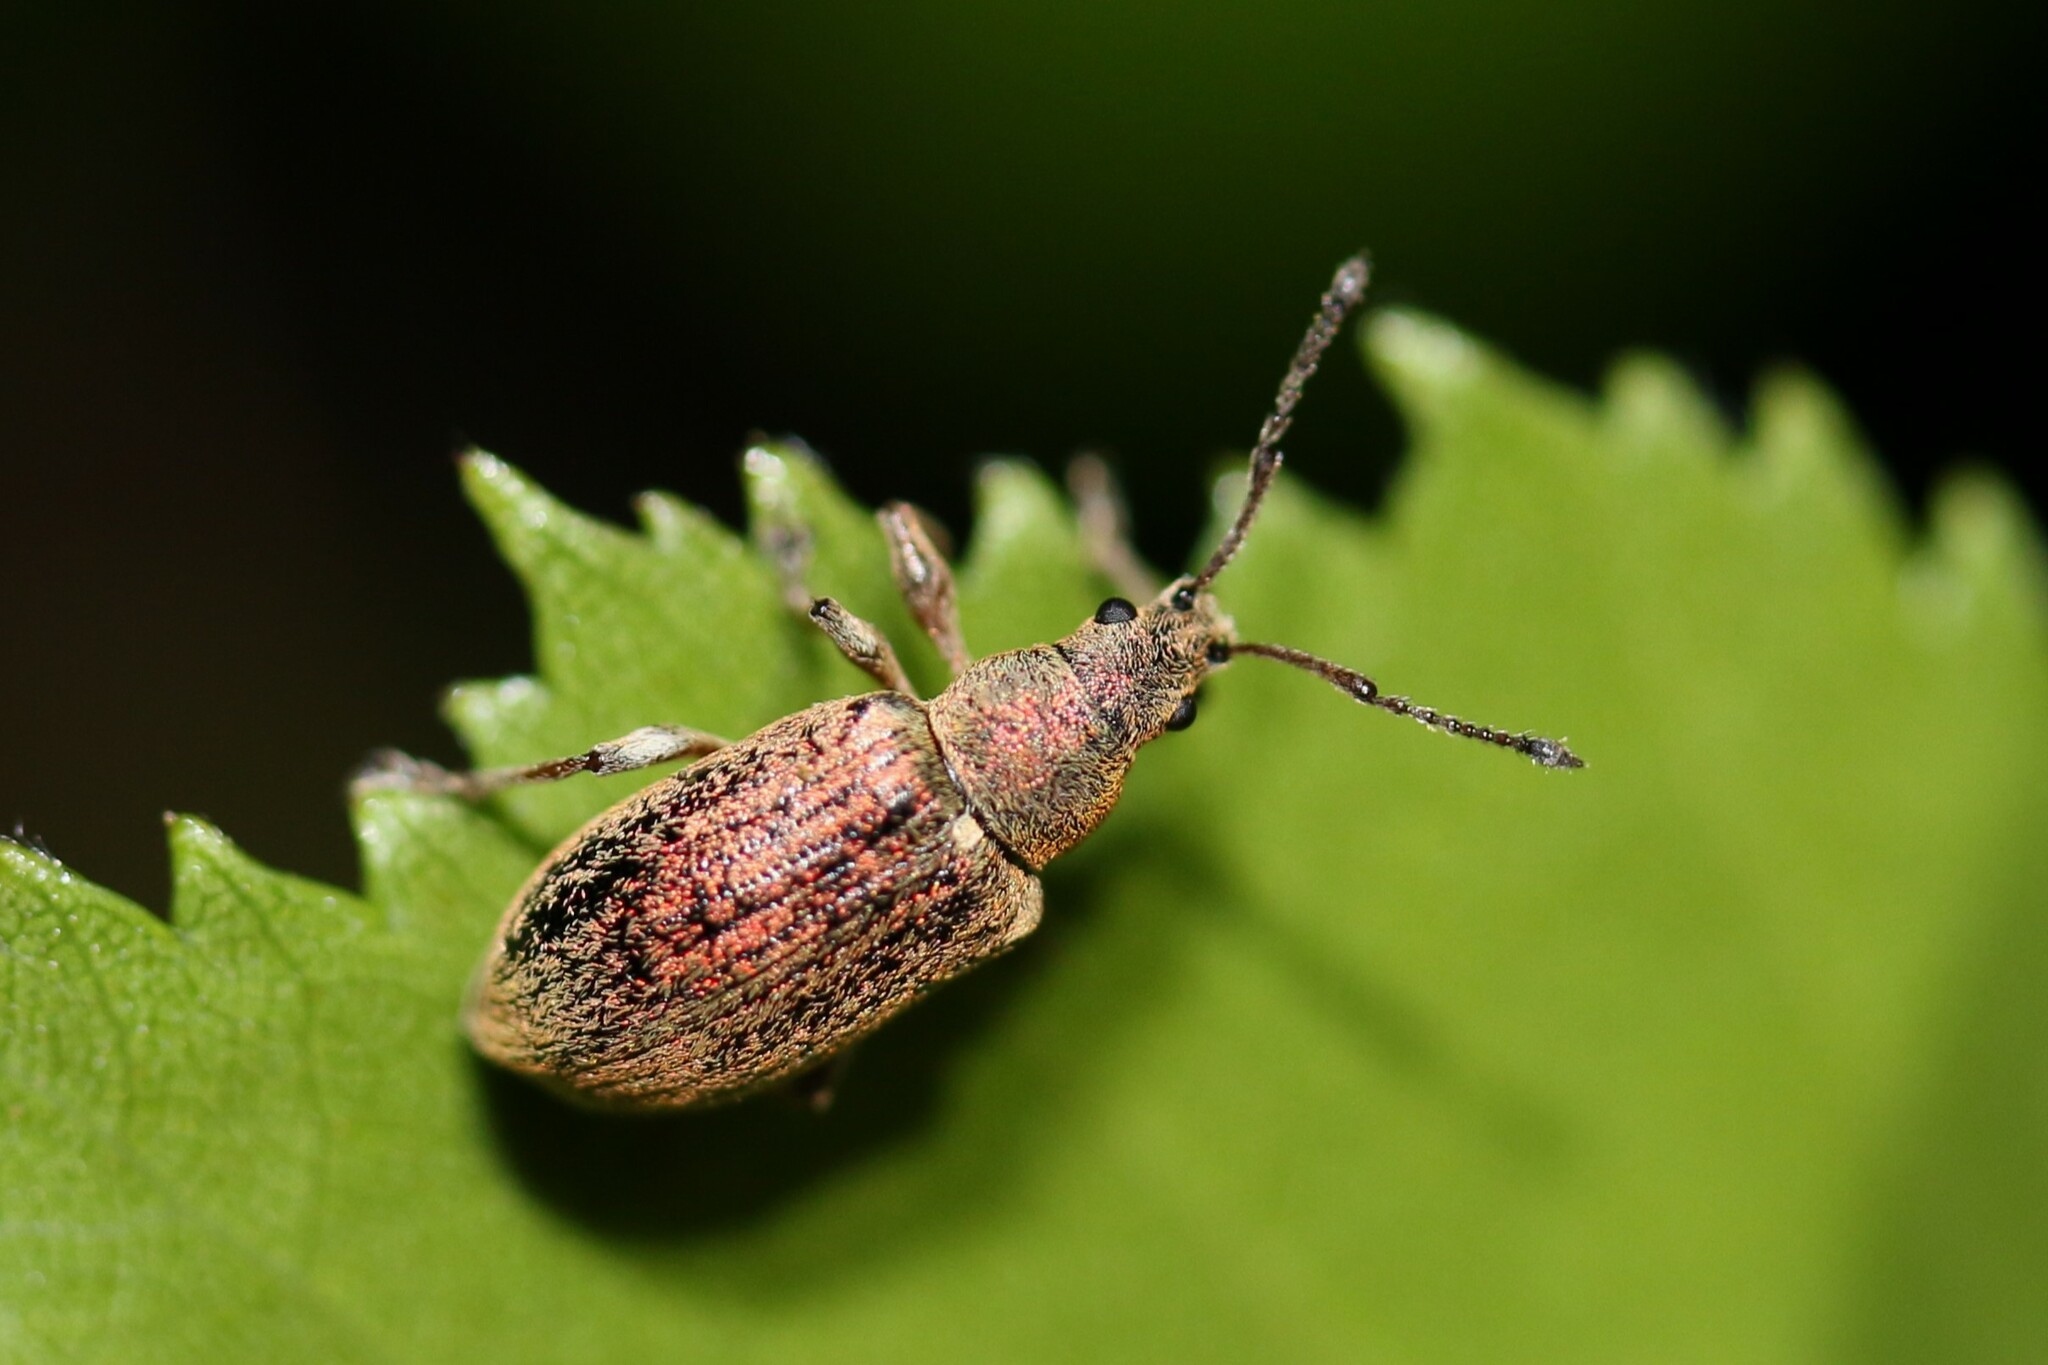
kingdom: Animalia
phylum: Arthropoda
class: Insecta
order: Coleoptera
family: Curculionidae
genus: Phyllobius
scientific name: Phyllobius pyri
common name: Common leaf weevil
